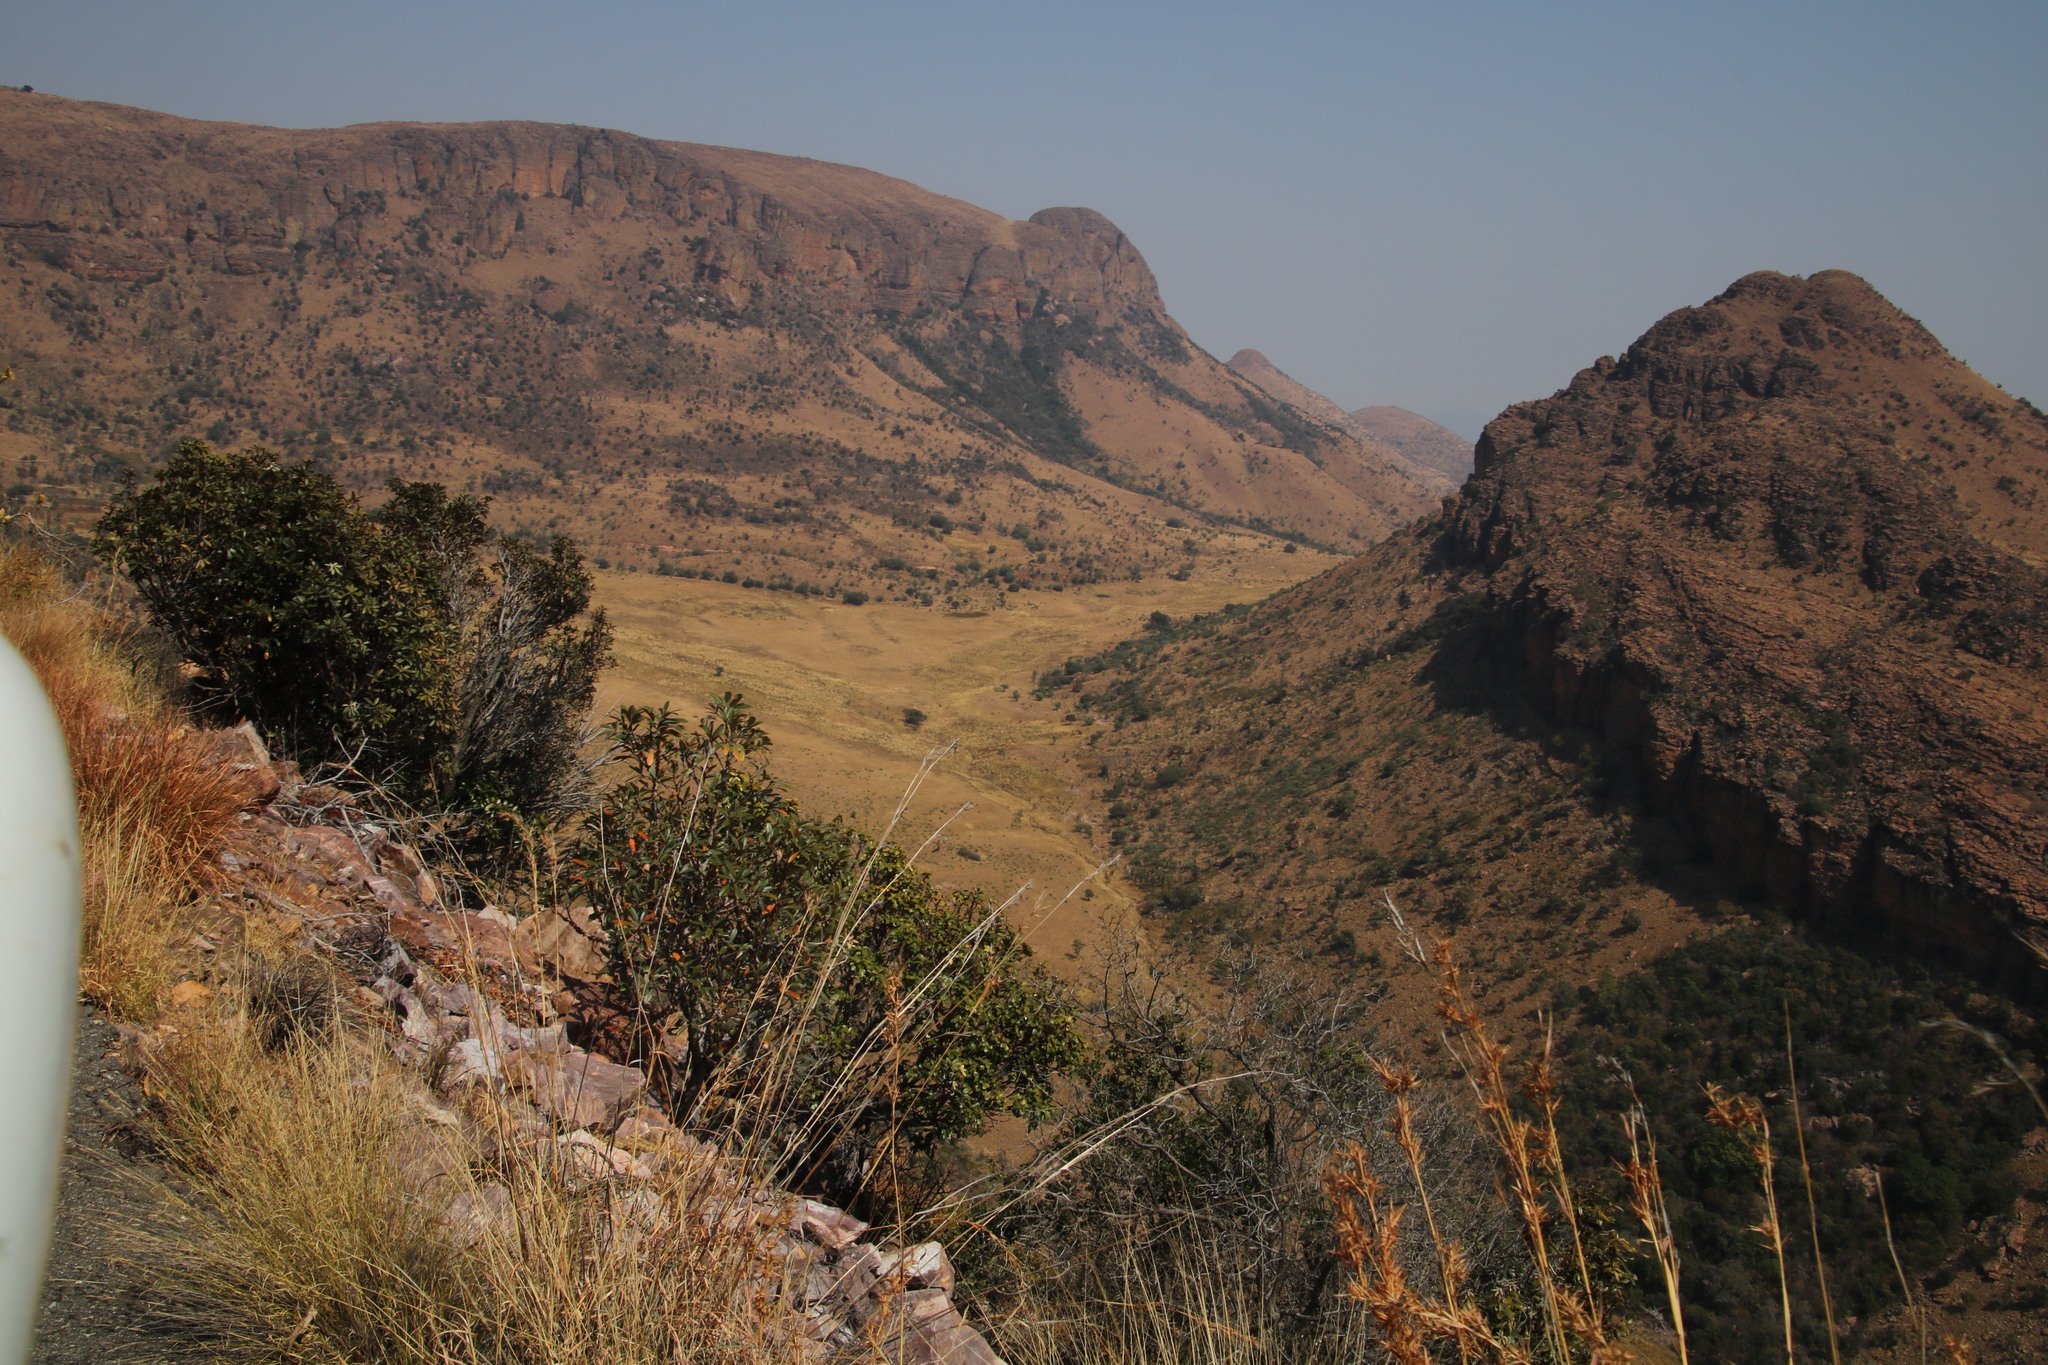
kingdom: Plantae
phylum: Tracheophyta
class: Magnoliopsida
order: Ericales
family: Sapotaceae
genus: Englerophytum
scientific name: Englerophytum magalismontanum
